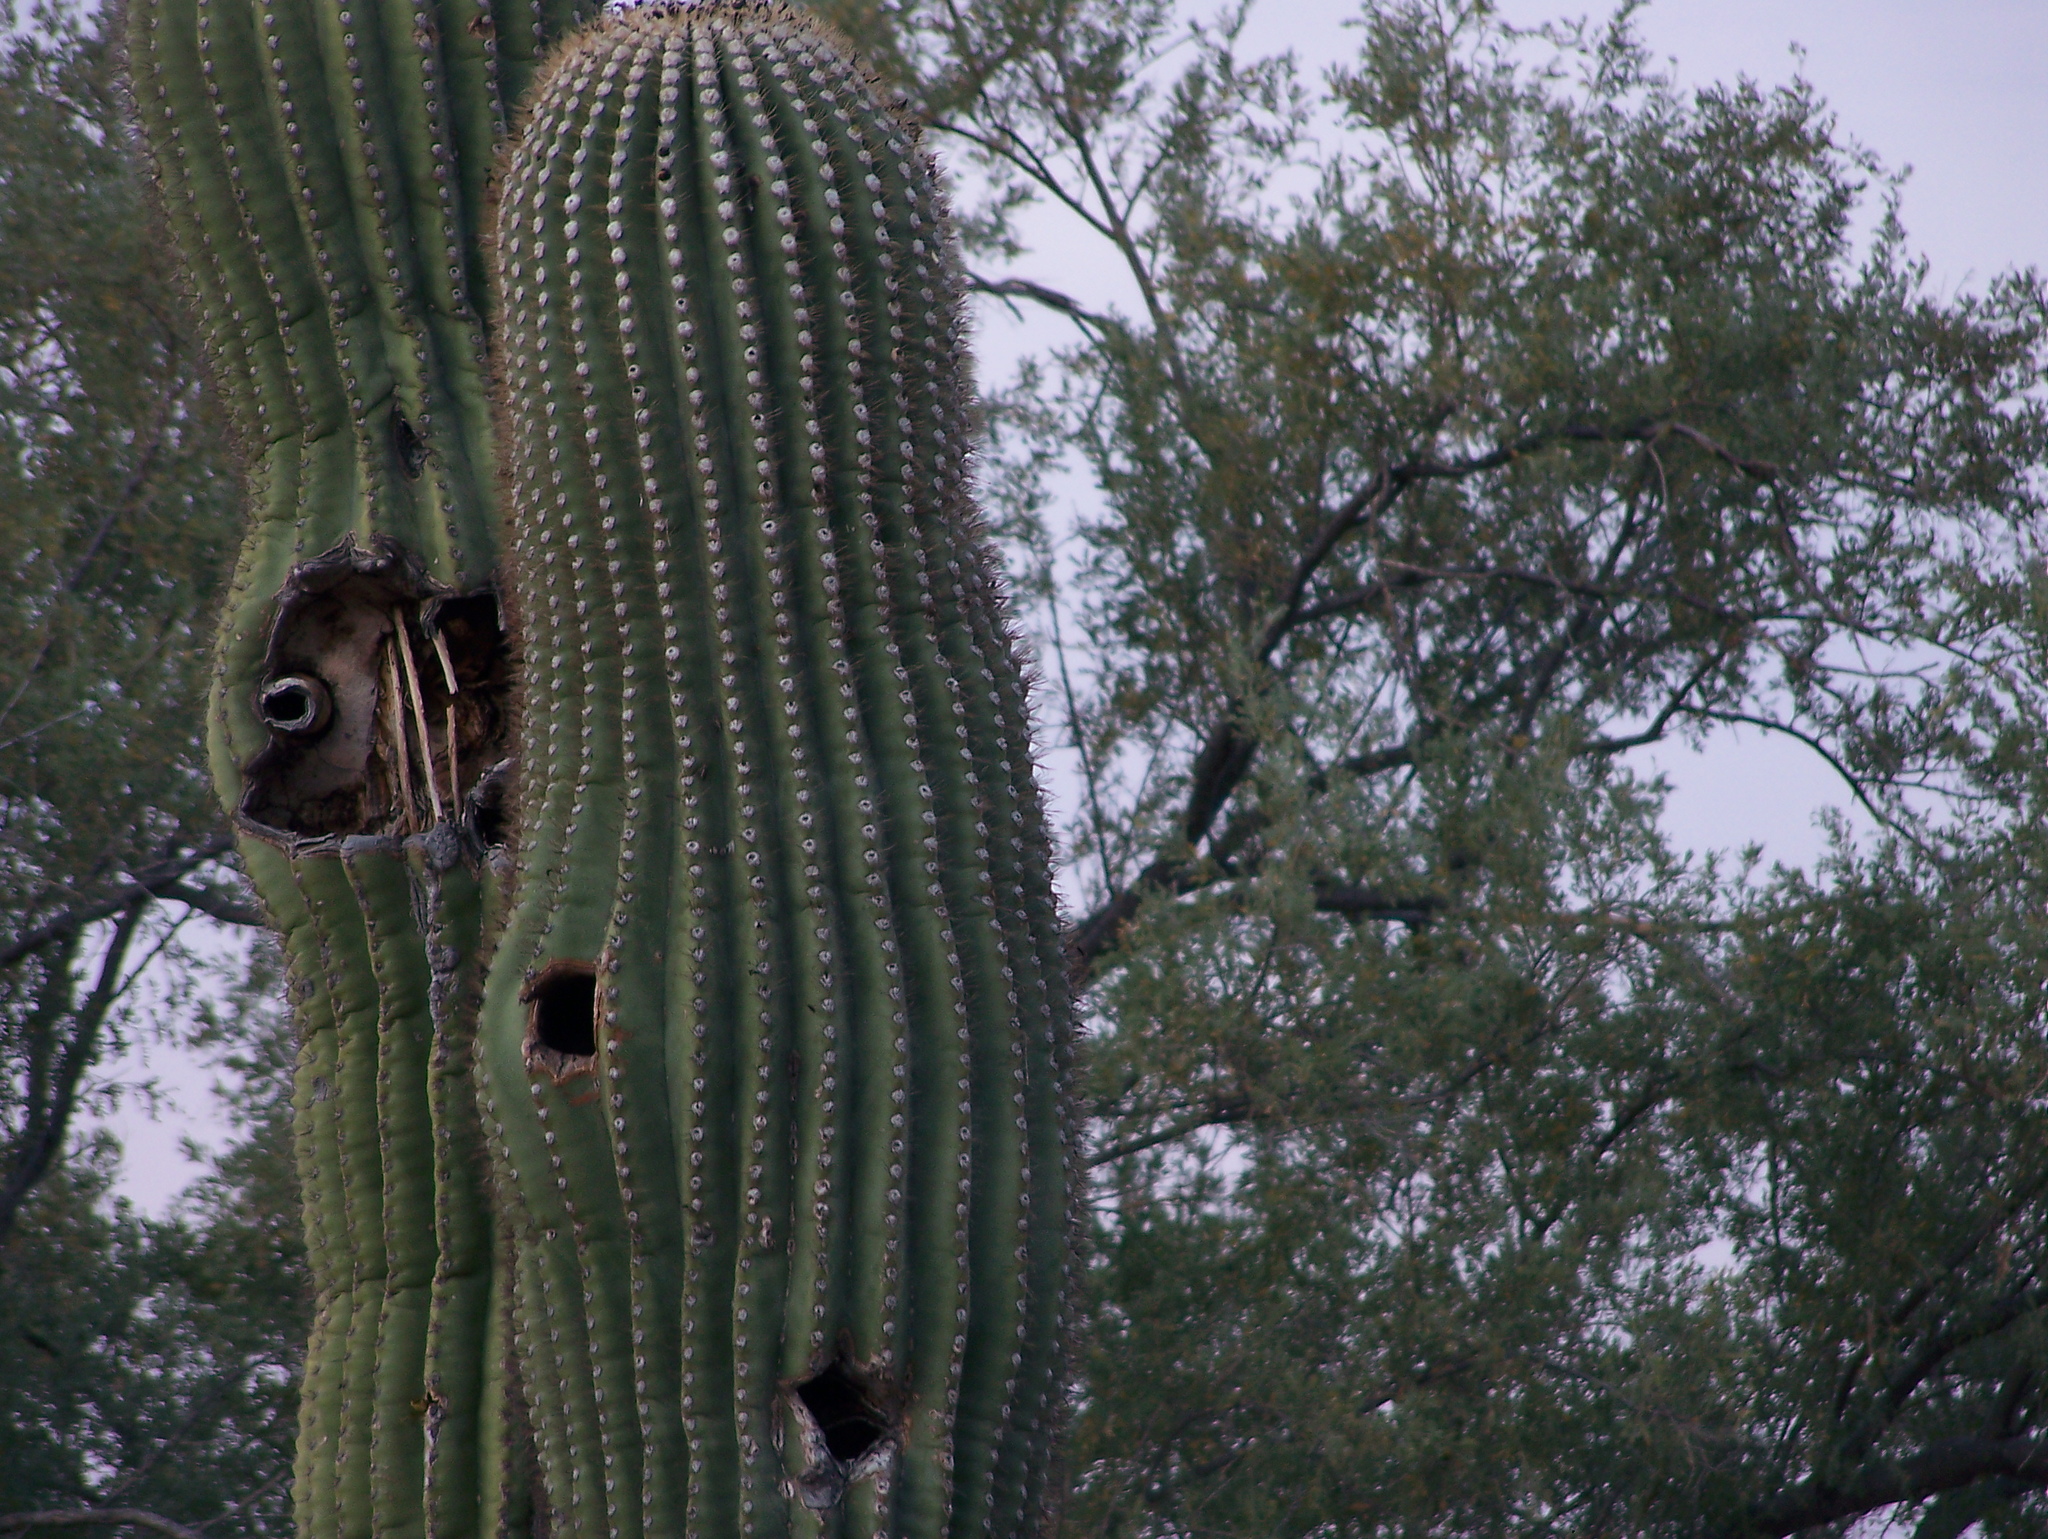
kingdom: Plantae
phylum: Tracheophyta
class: Magnoliopsida
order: Caryophyllales
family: Cactaceae
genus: Carnegiea
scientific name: Carnegiea gigantea
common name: Saguaro
